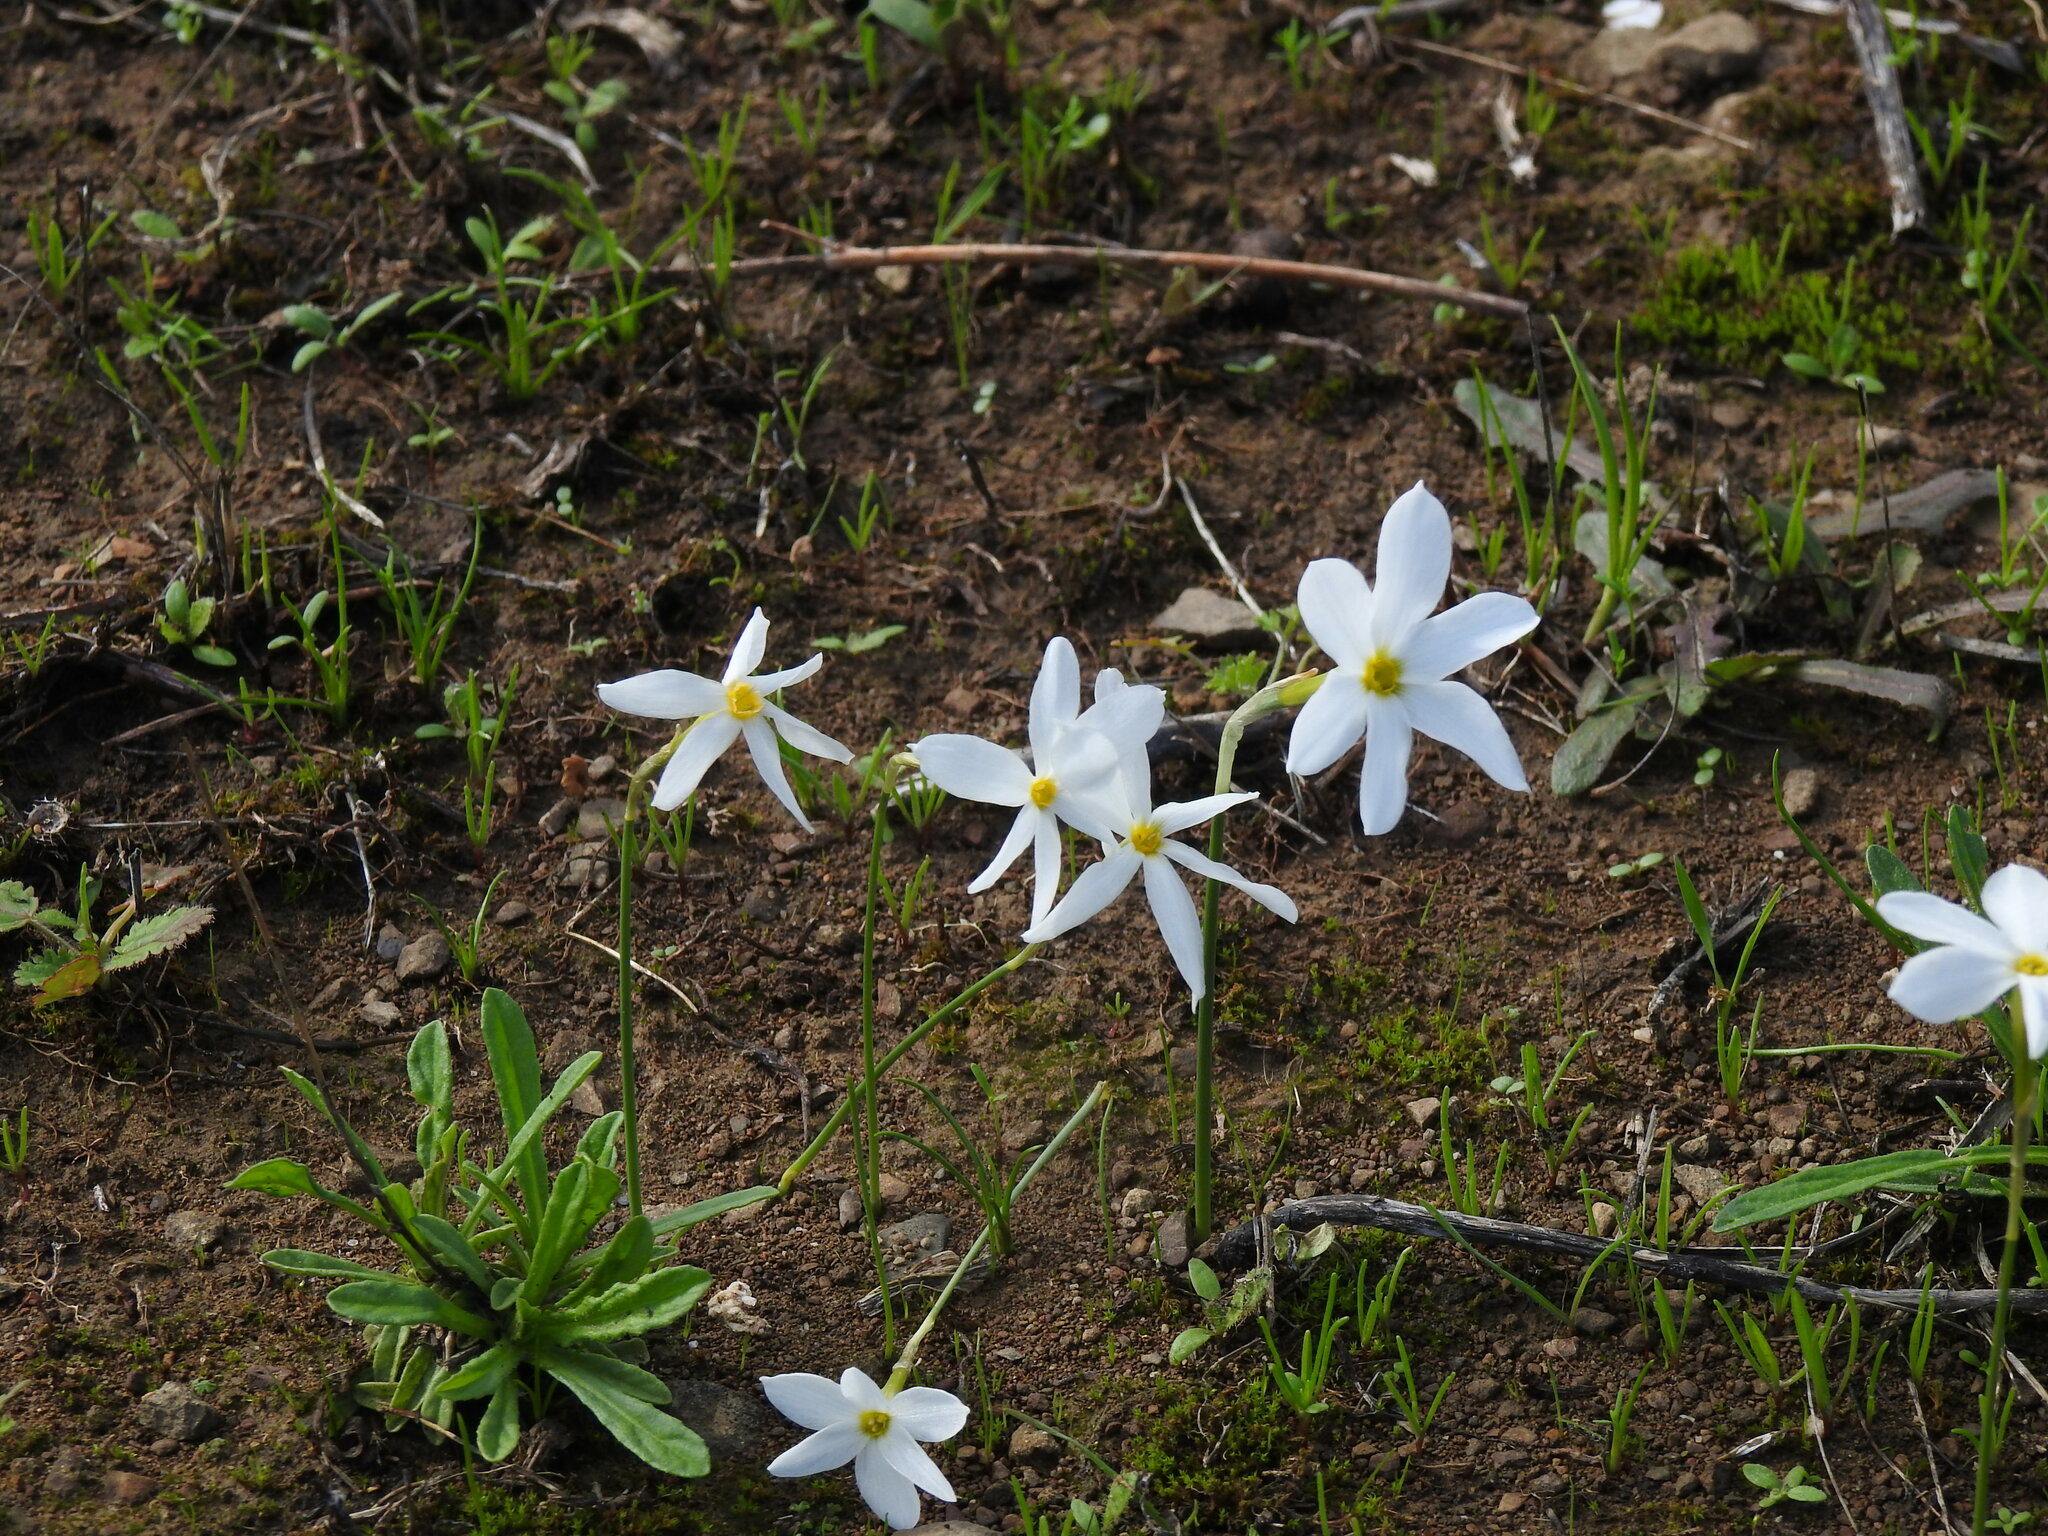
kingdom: Plantae
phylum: Tracheophyta
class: Liliopsida
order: Asparagales
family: Amaryllidaceae
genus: Narcissus
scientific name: Narcissus serotinus
